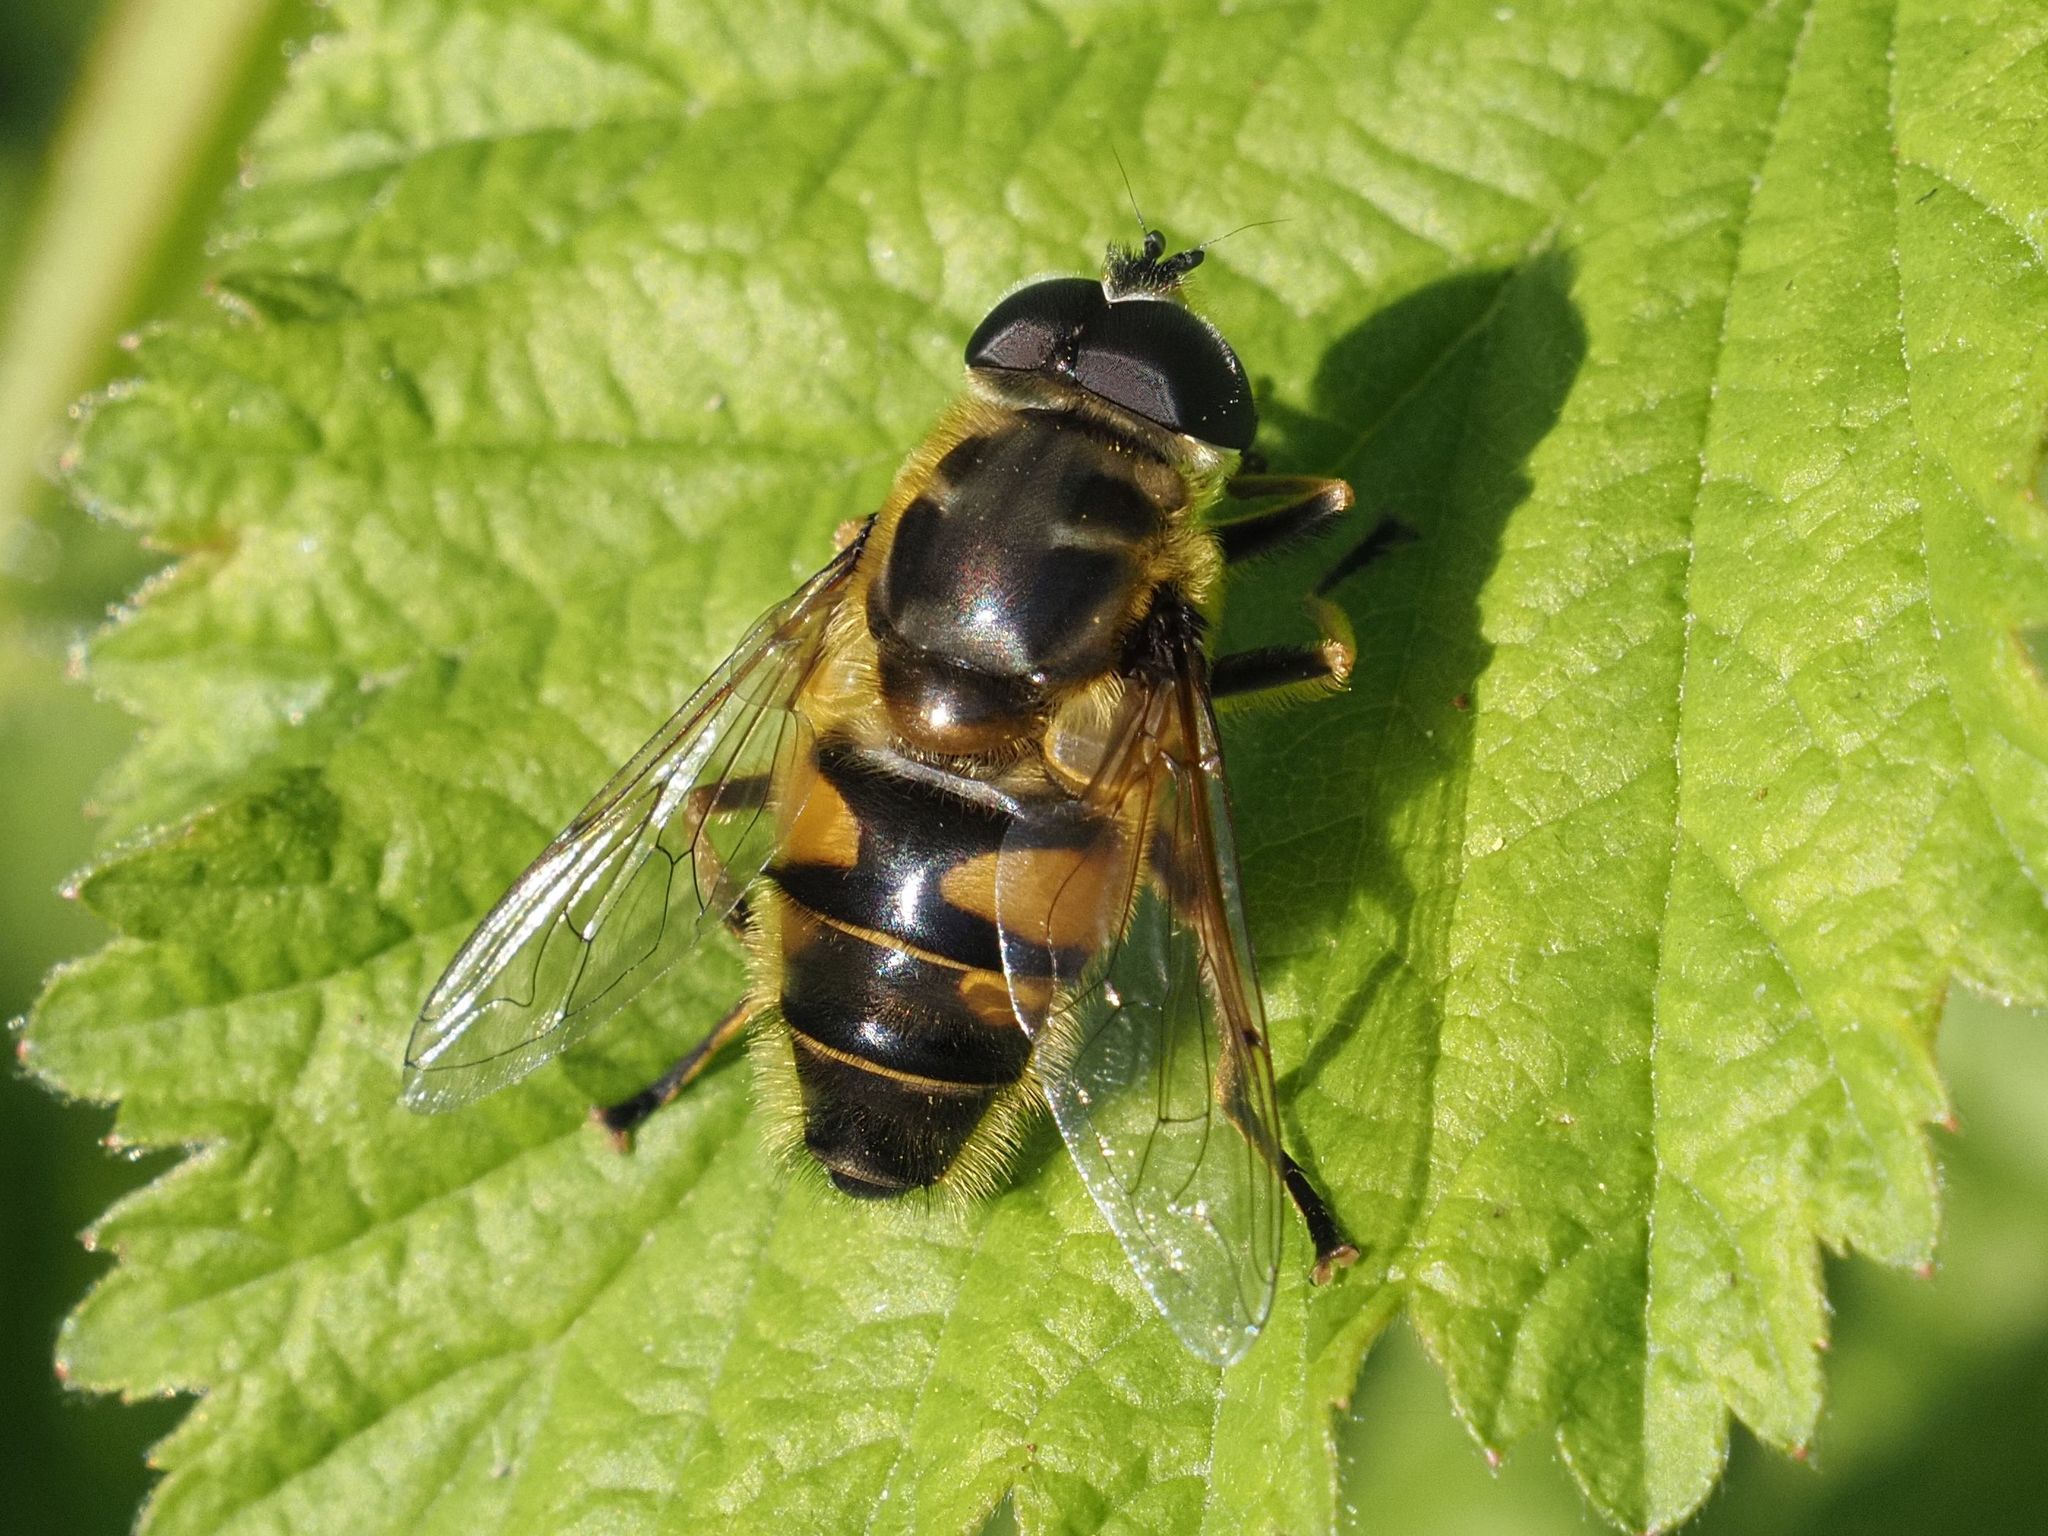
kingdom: Animalia
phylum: Arthropoda
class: Insecta
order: Diptera
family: Syrphidae
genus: Myathropa
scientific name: Myathropa florea
